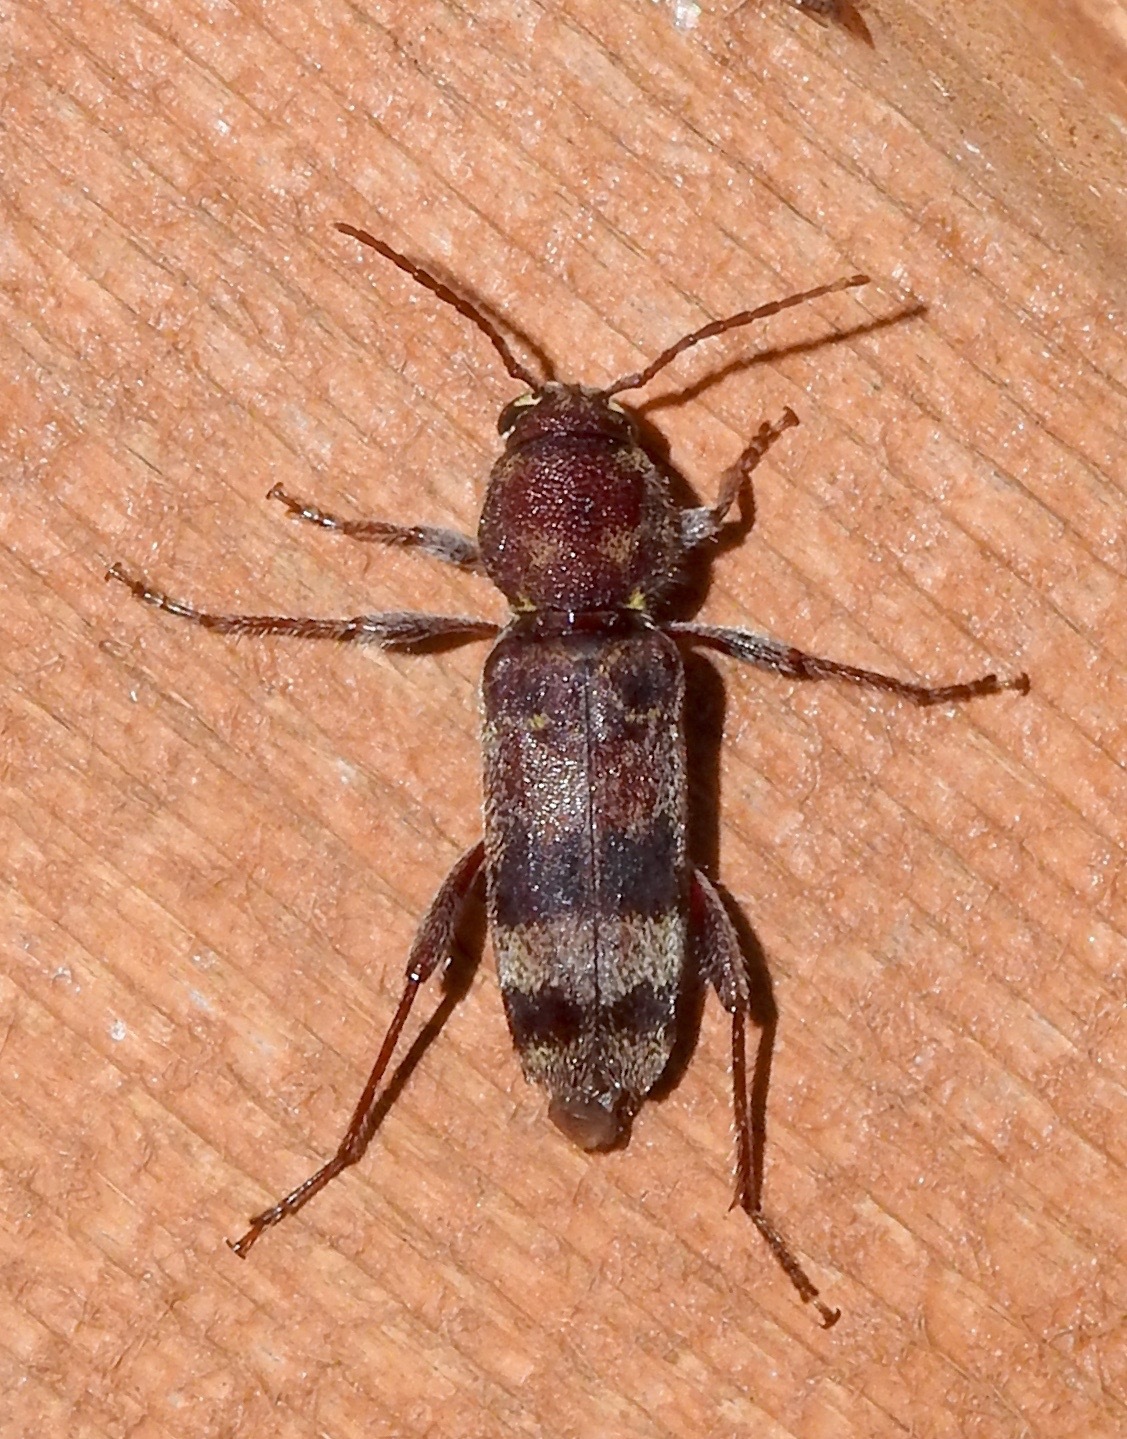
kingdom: Animalia
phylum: Arthropoda
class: Insecta
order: Coleoptera
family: Cerambycidae
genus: Xylotrechus
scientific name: Xylotrechus colonus
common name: Long-horned beetle
